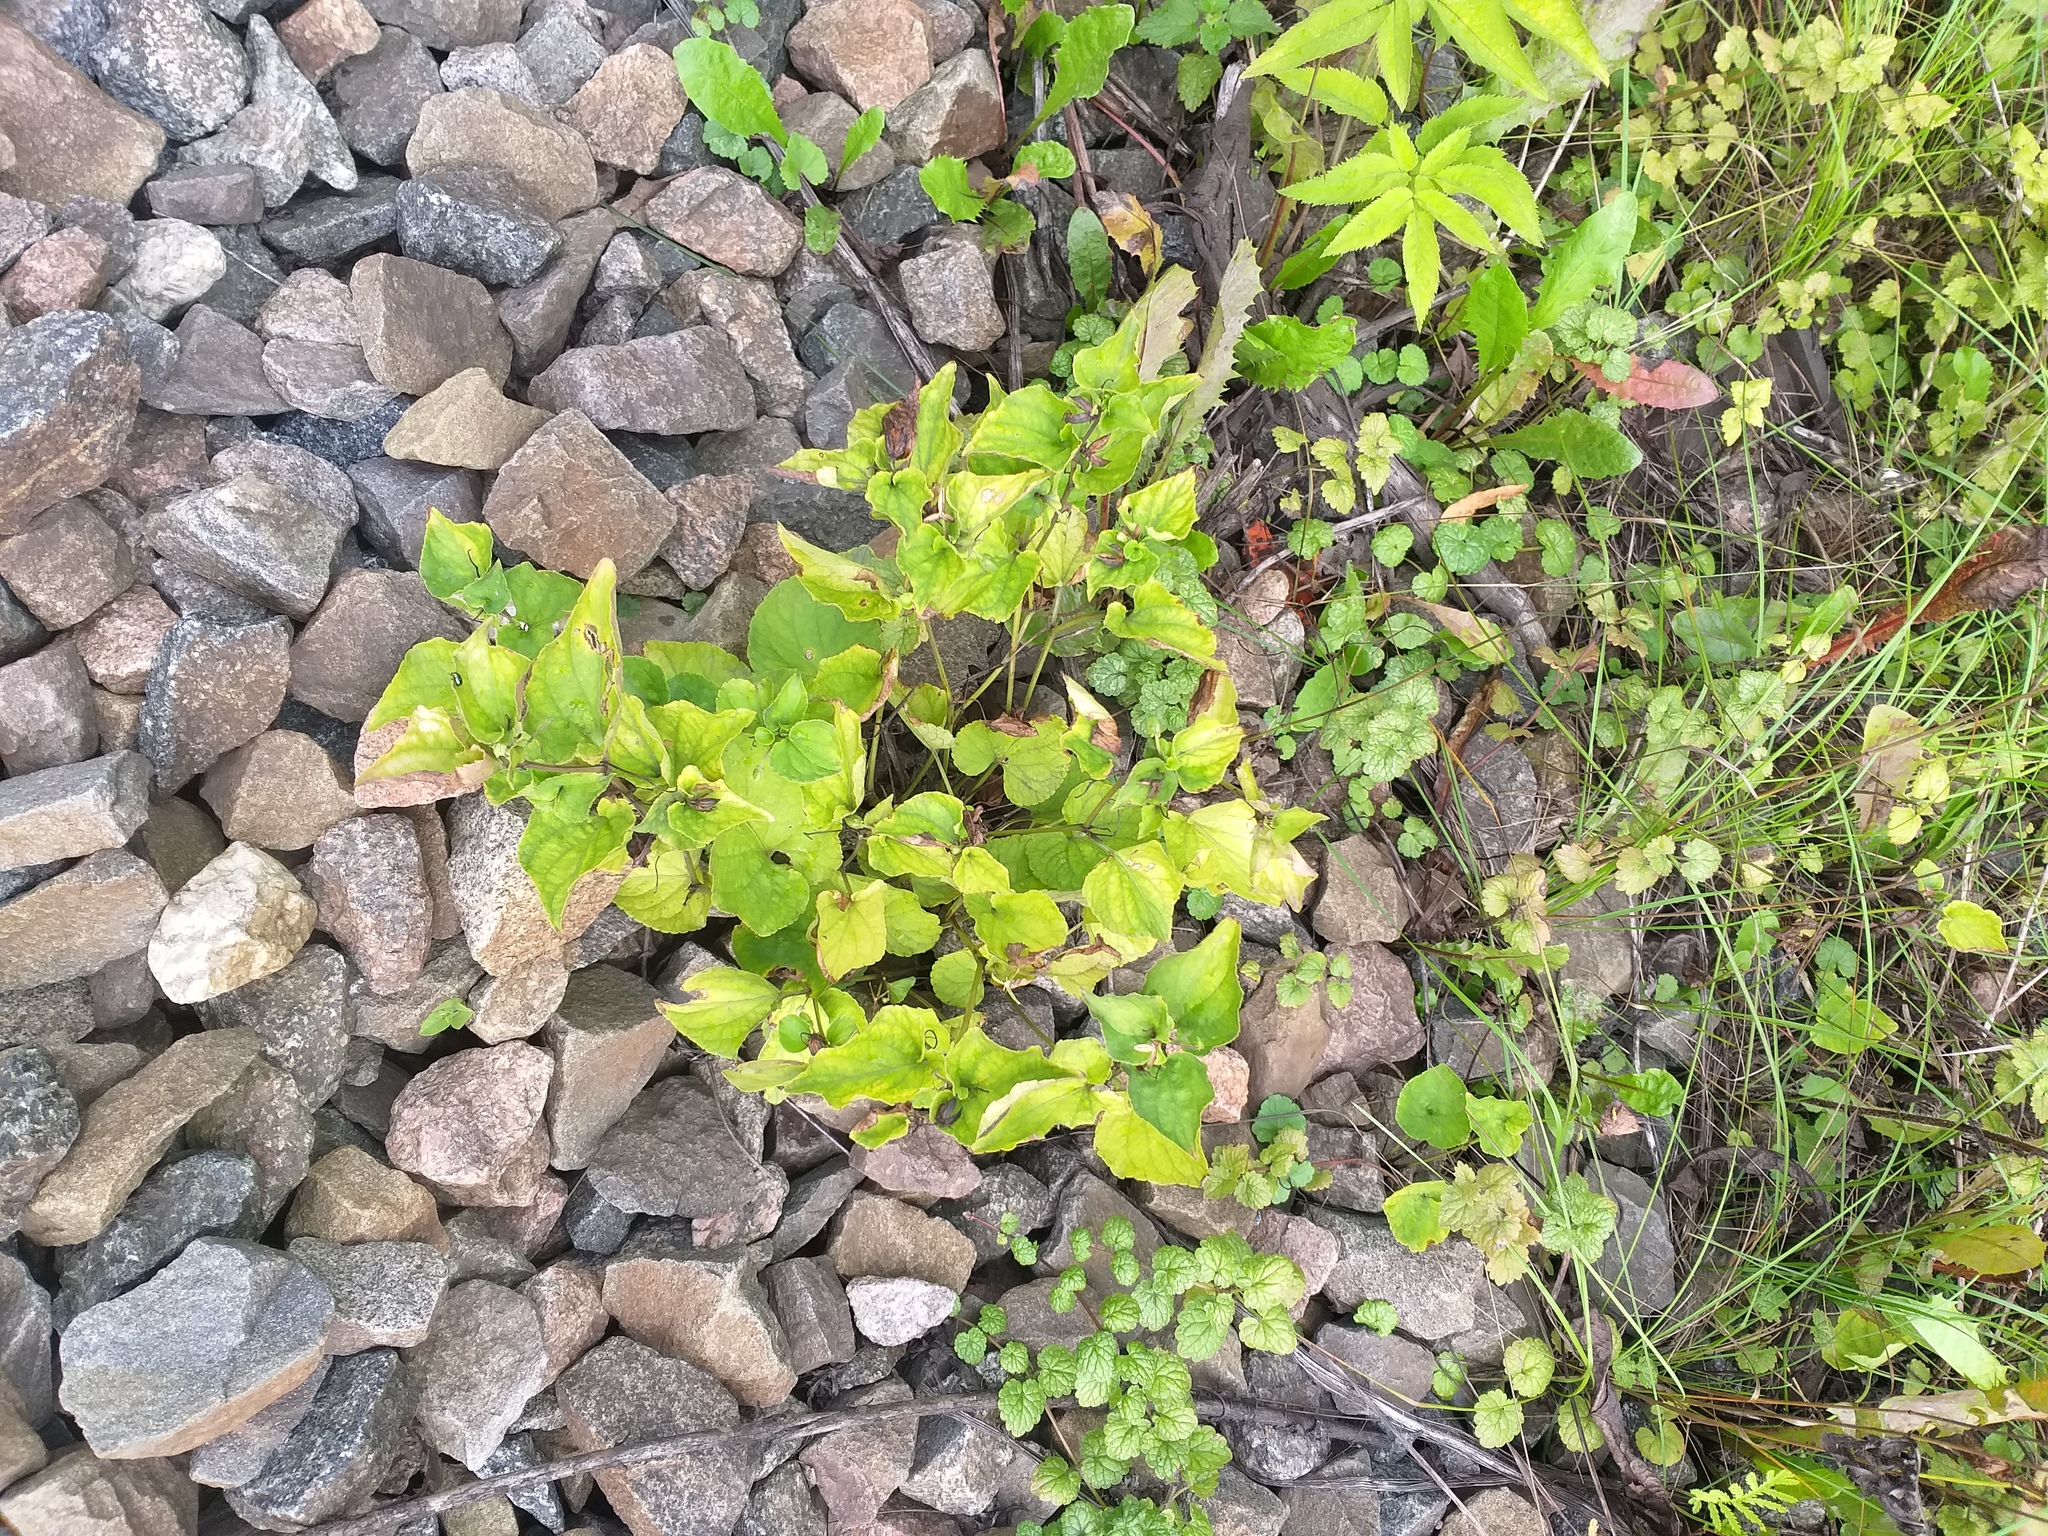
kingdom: Plantae
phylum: Tracheophyta
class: Magnoliopsida
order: Malpighiales
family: Violaceae
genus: Viola
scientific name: Viola riviniana
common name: Common dog-violet
